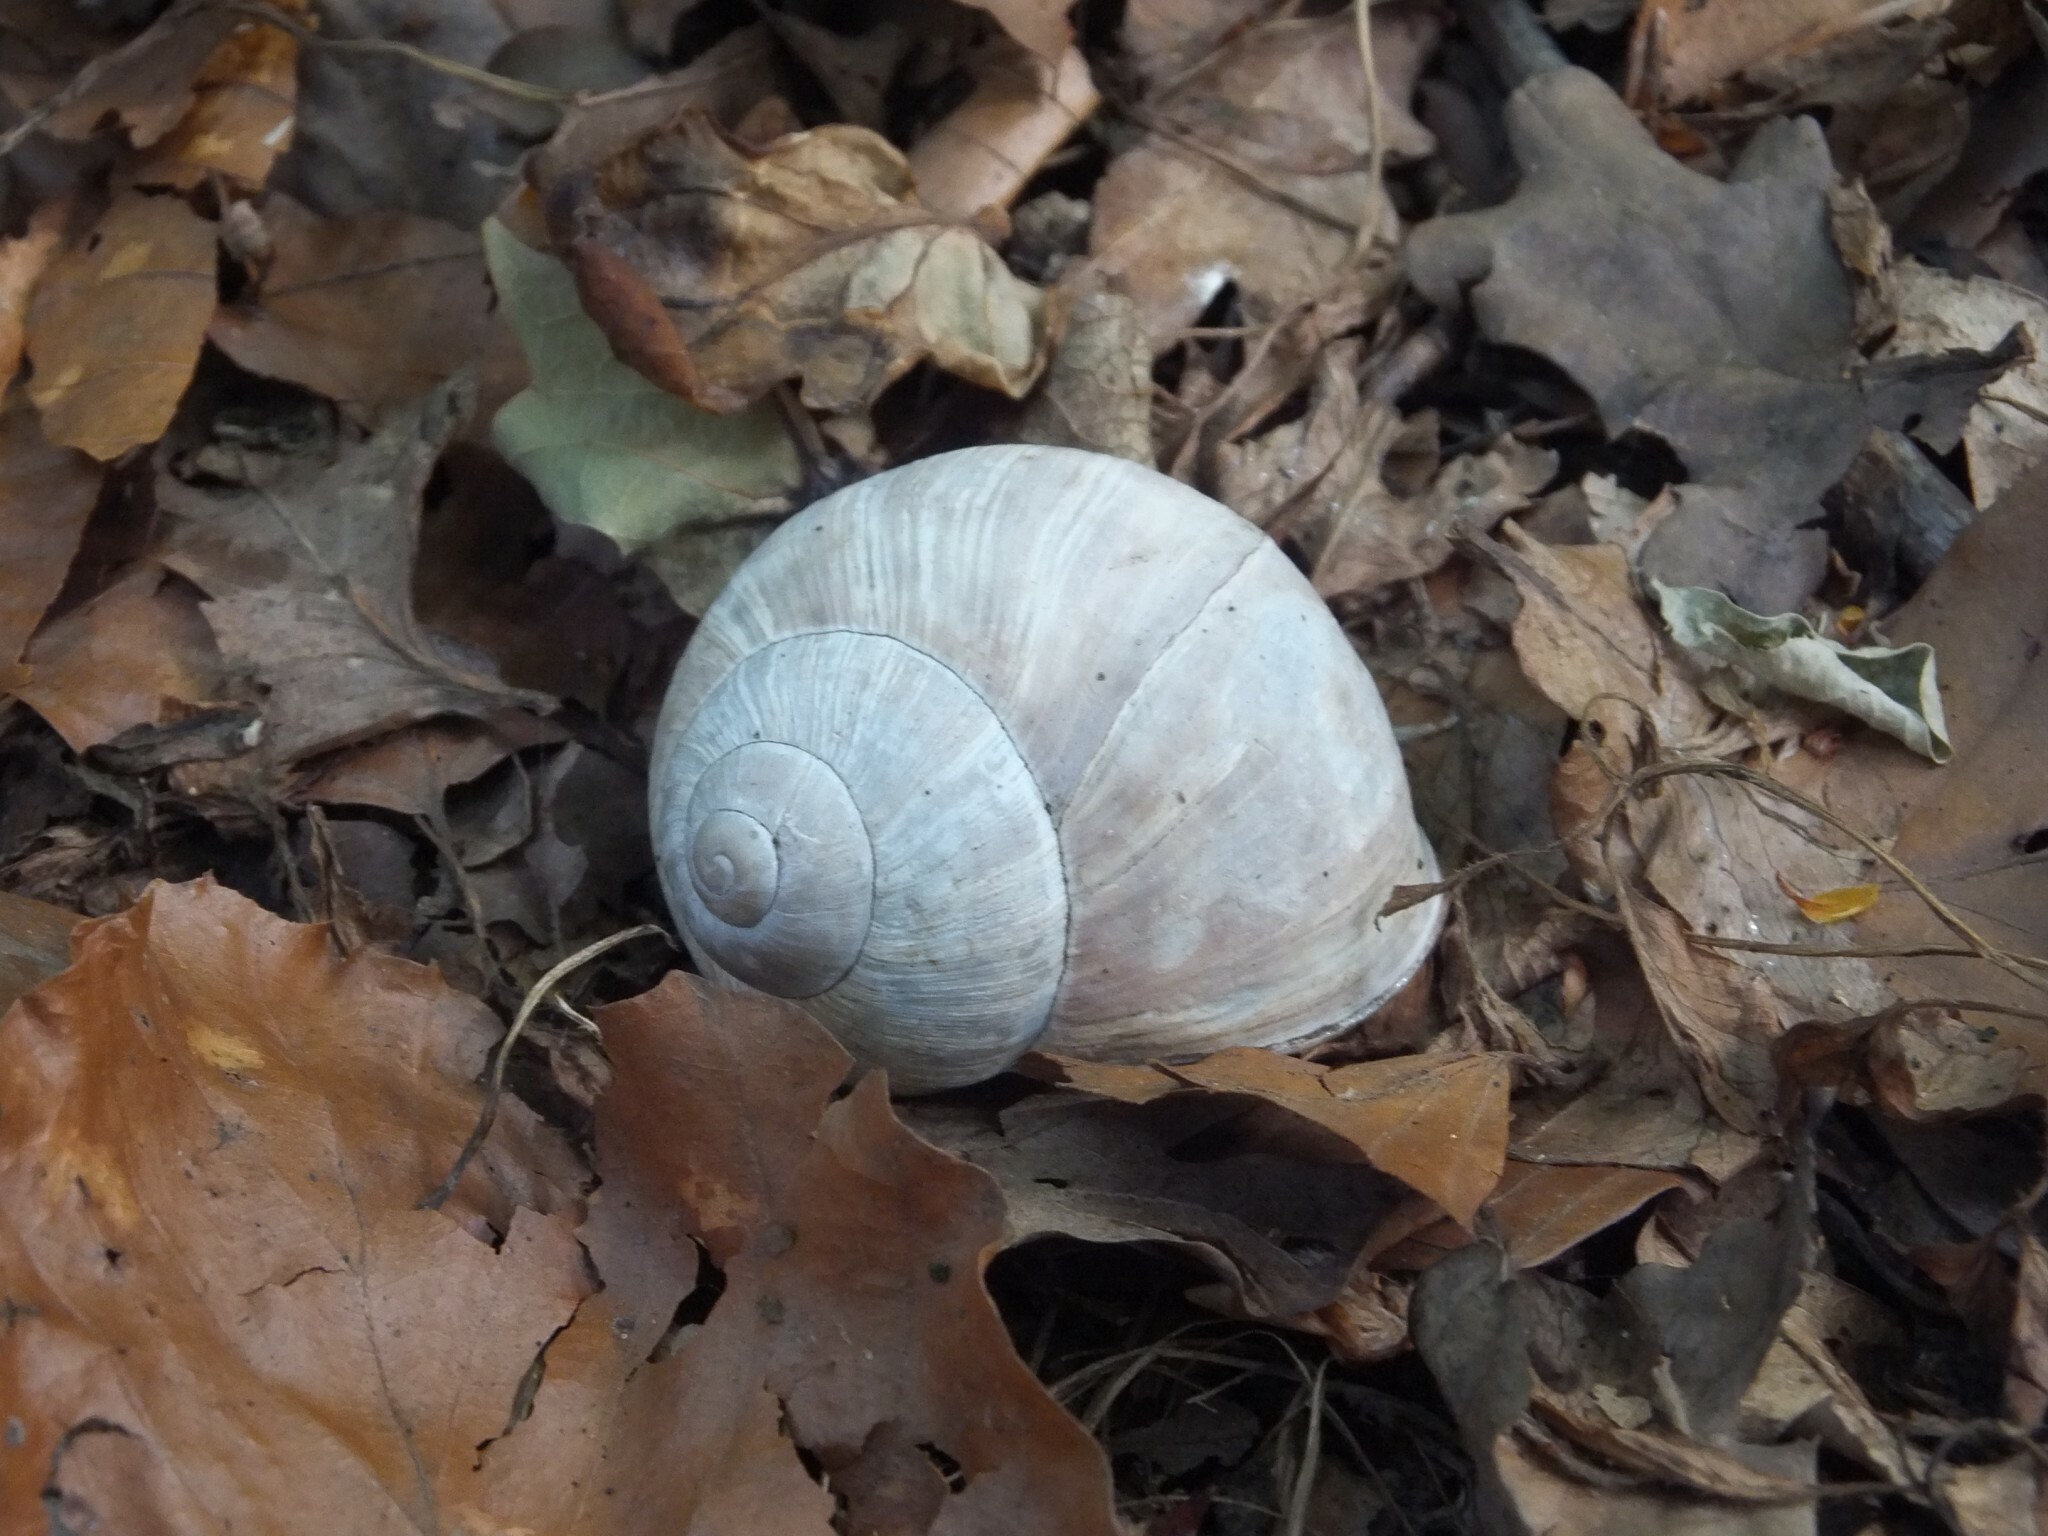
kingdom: Animalia
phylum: Mollusca
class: Gastropoda
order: Stylommatophora
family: Helicidae
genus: Helix
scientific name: Helix pomatia
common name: Roman snail
